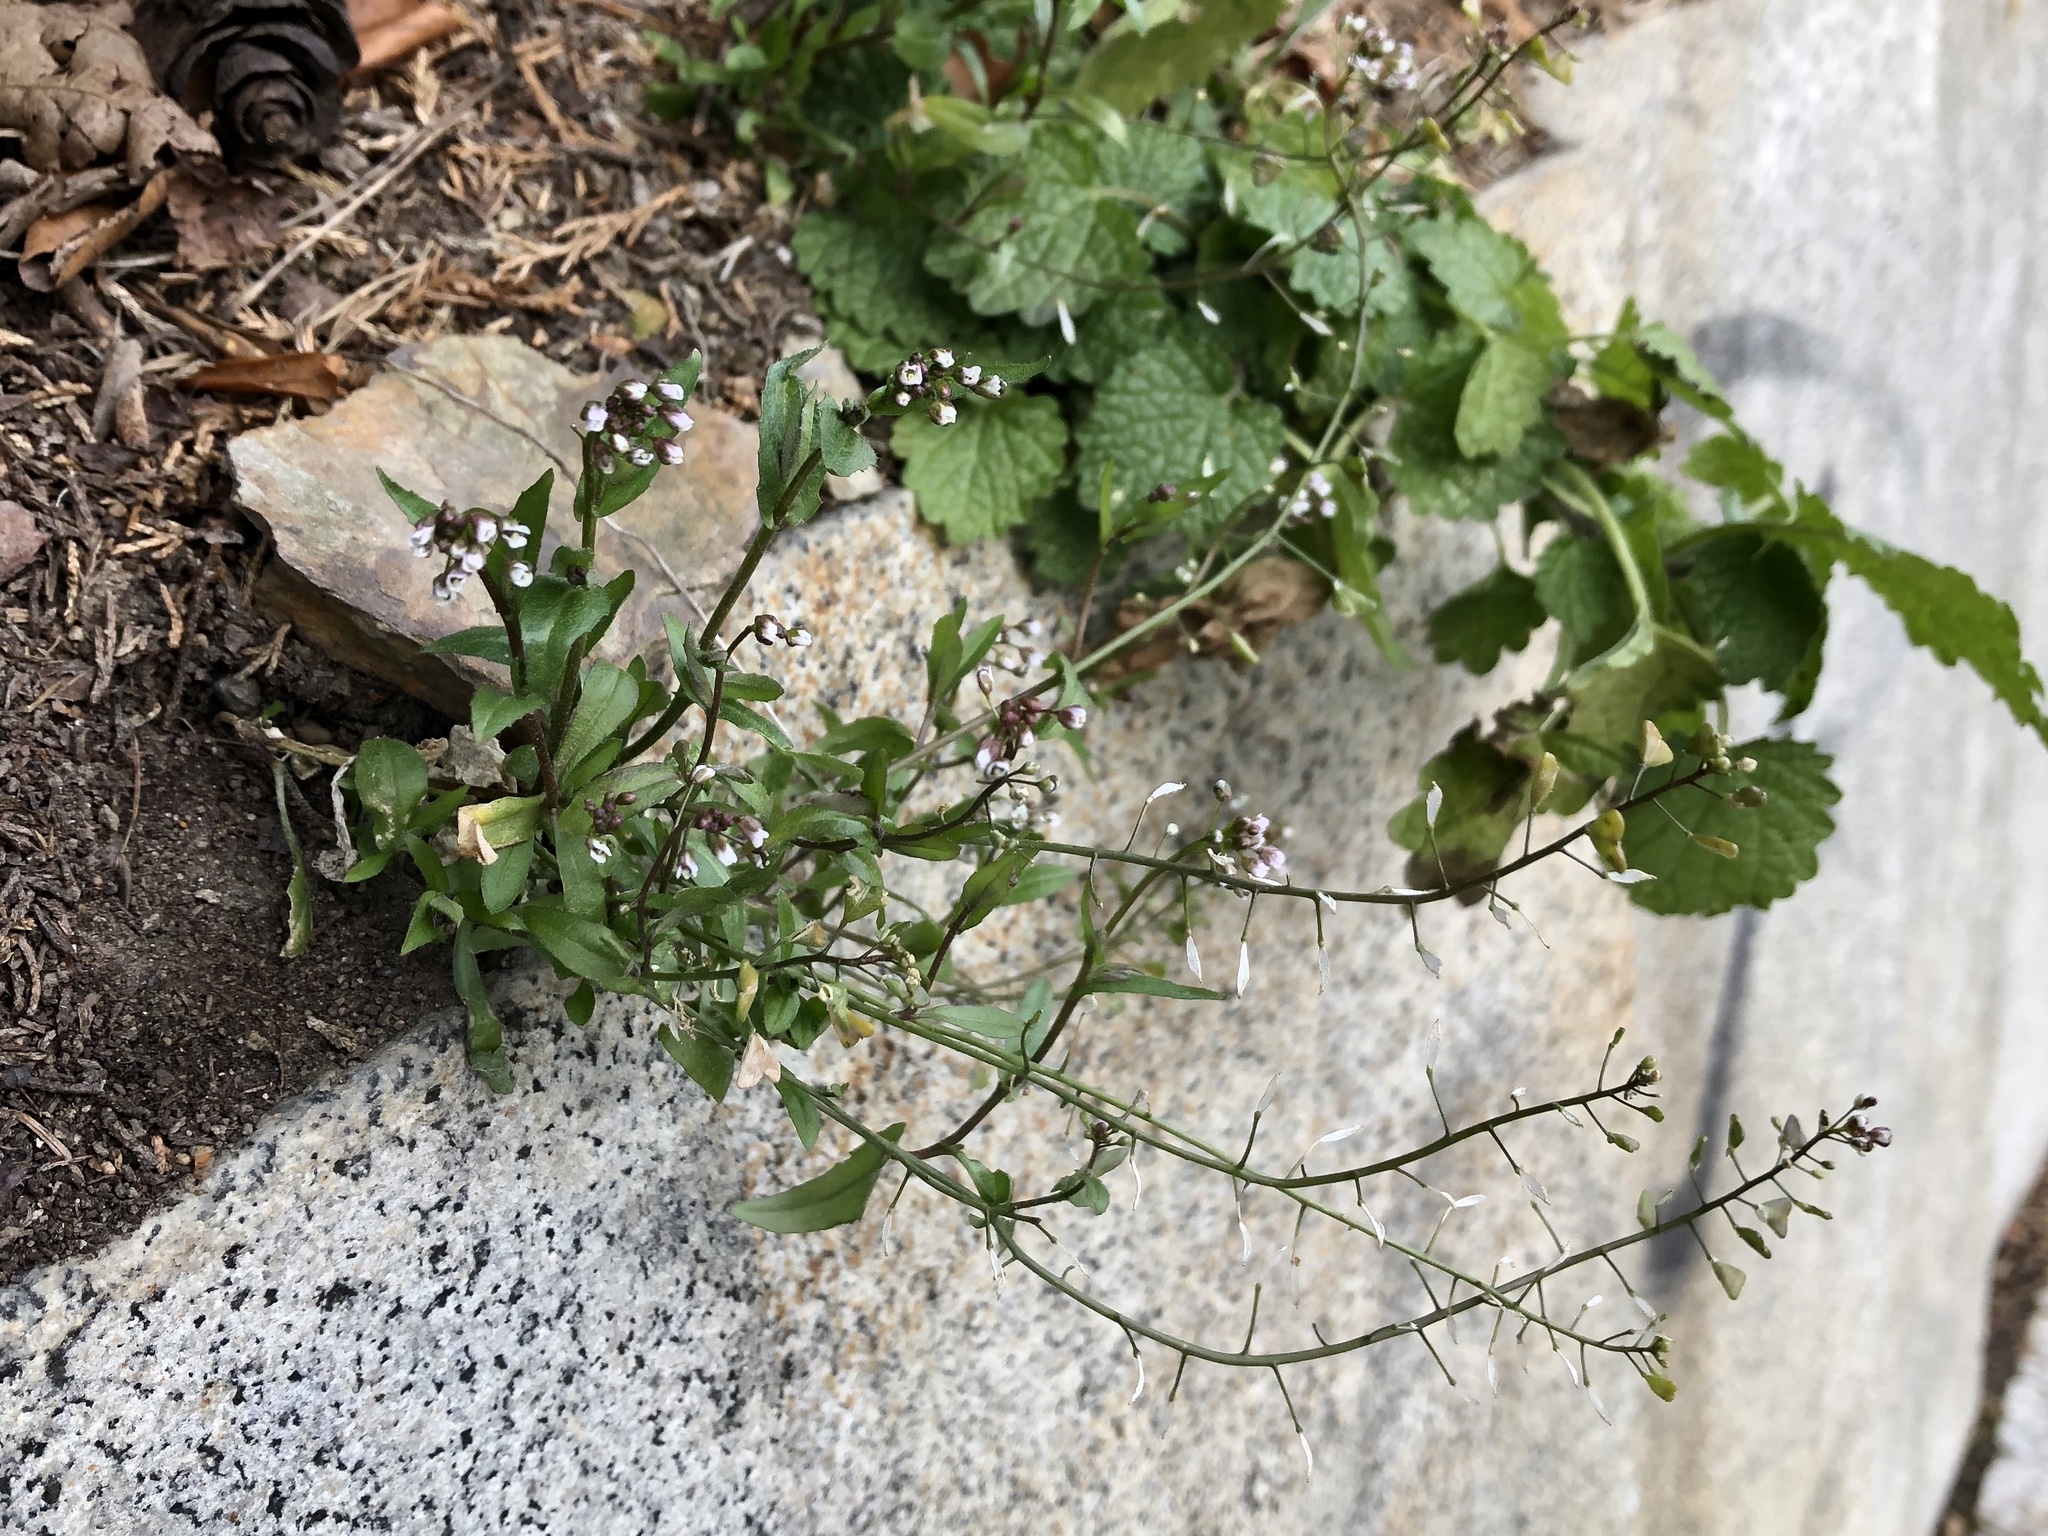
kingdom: Plantae
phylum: Tracheophyta
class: Magnoliopsida
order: Brassicales
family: Brassicaceae
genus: Capsella
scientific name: Capsella bursa-pastoris
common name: Shepherd's purse
